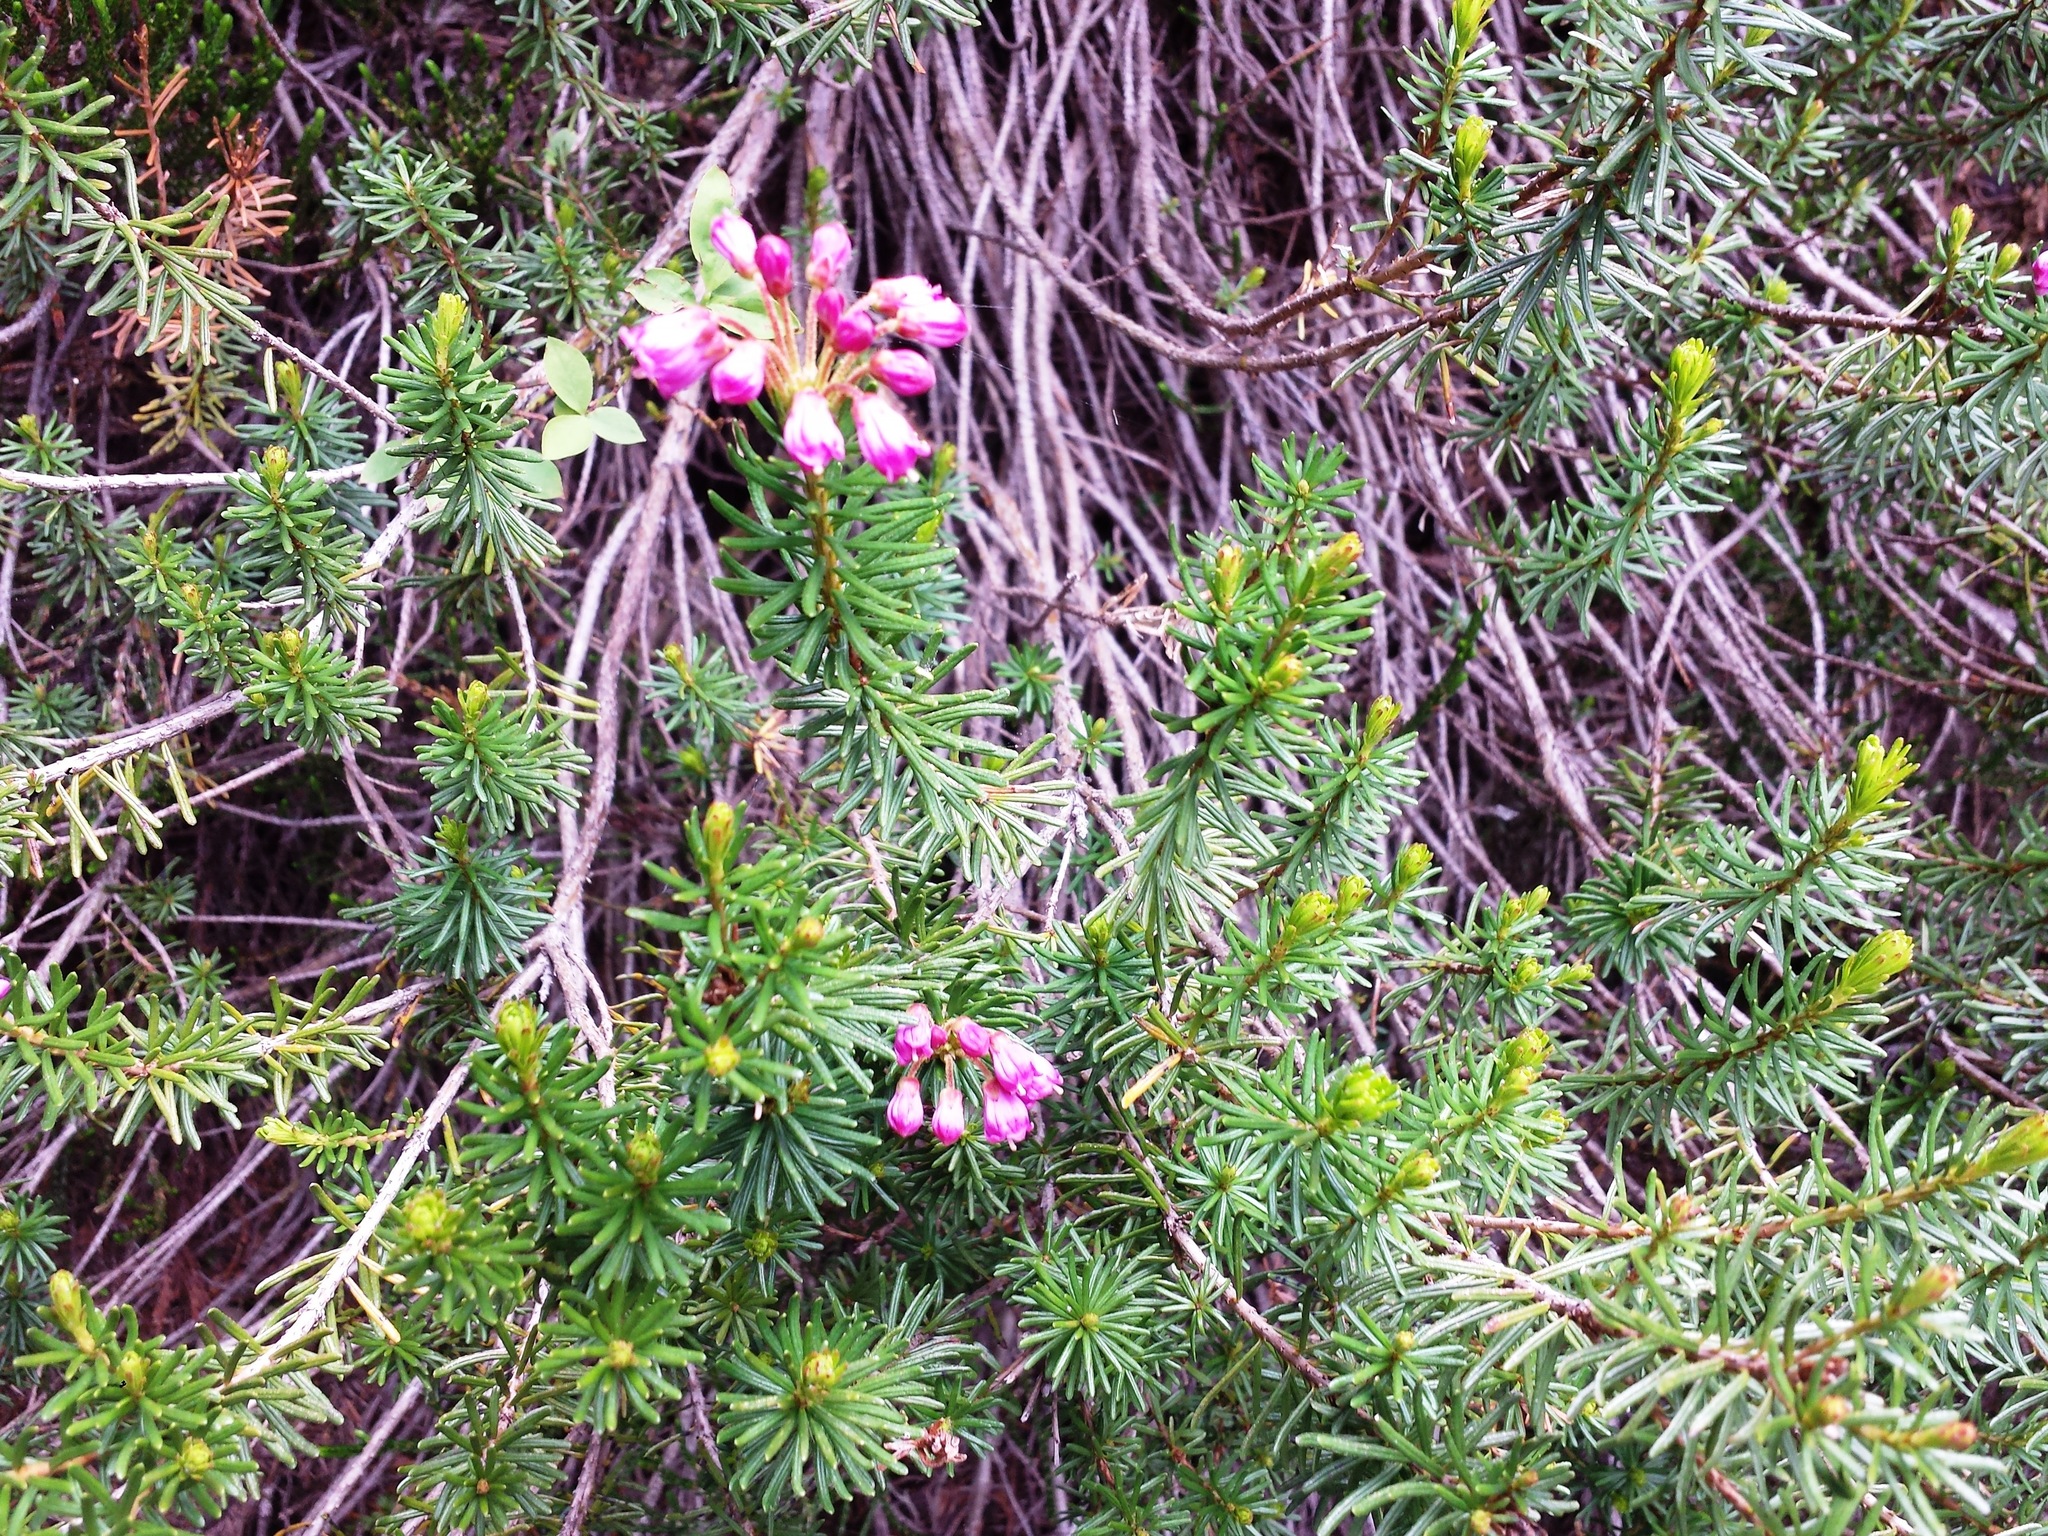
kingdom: Plantae
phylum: Tracheophyta
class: Magnoliopsida
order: Ericales
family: Ericaceae
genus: Phyllodoce
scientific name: Phyllodoce empetriformis
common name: Pink mountain heather
